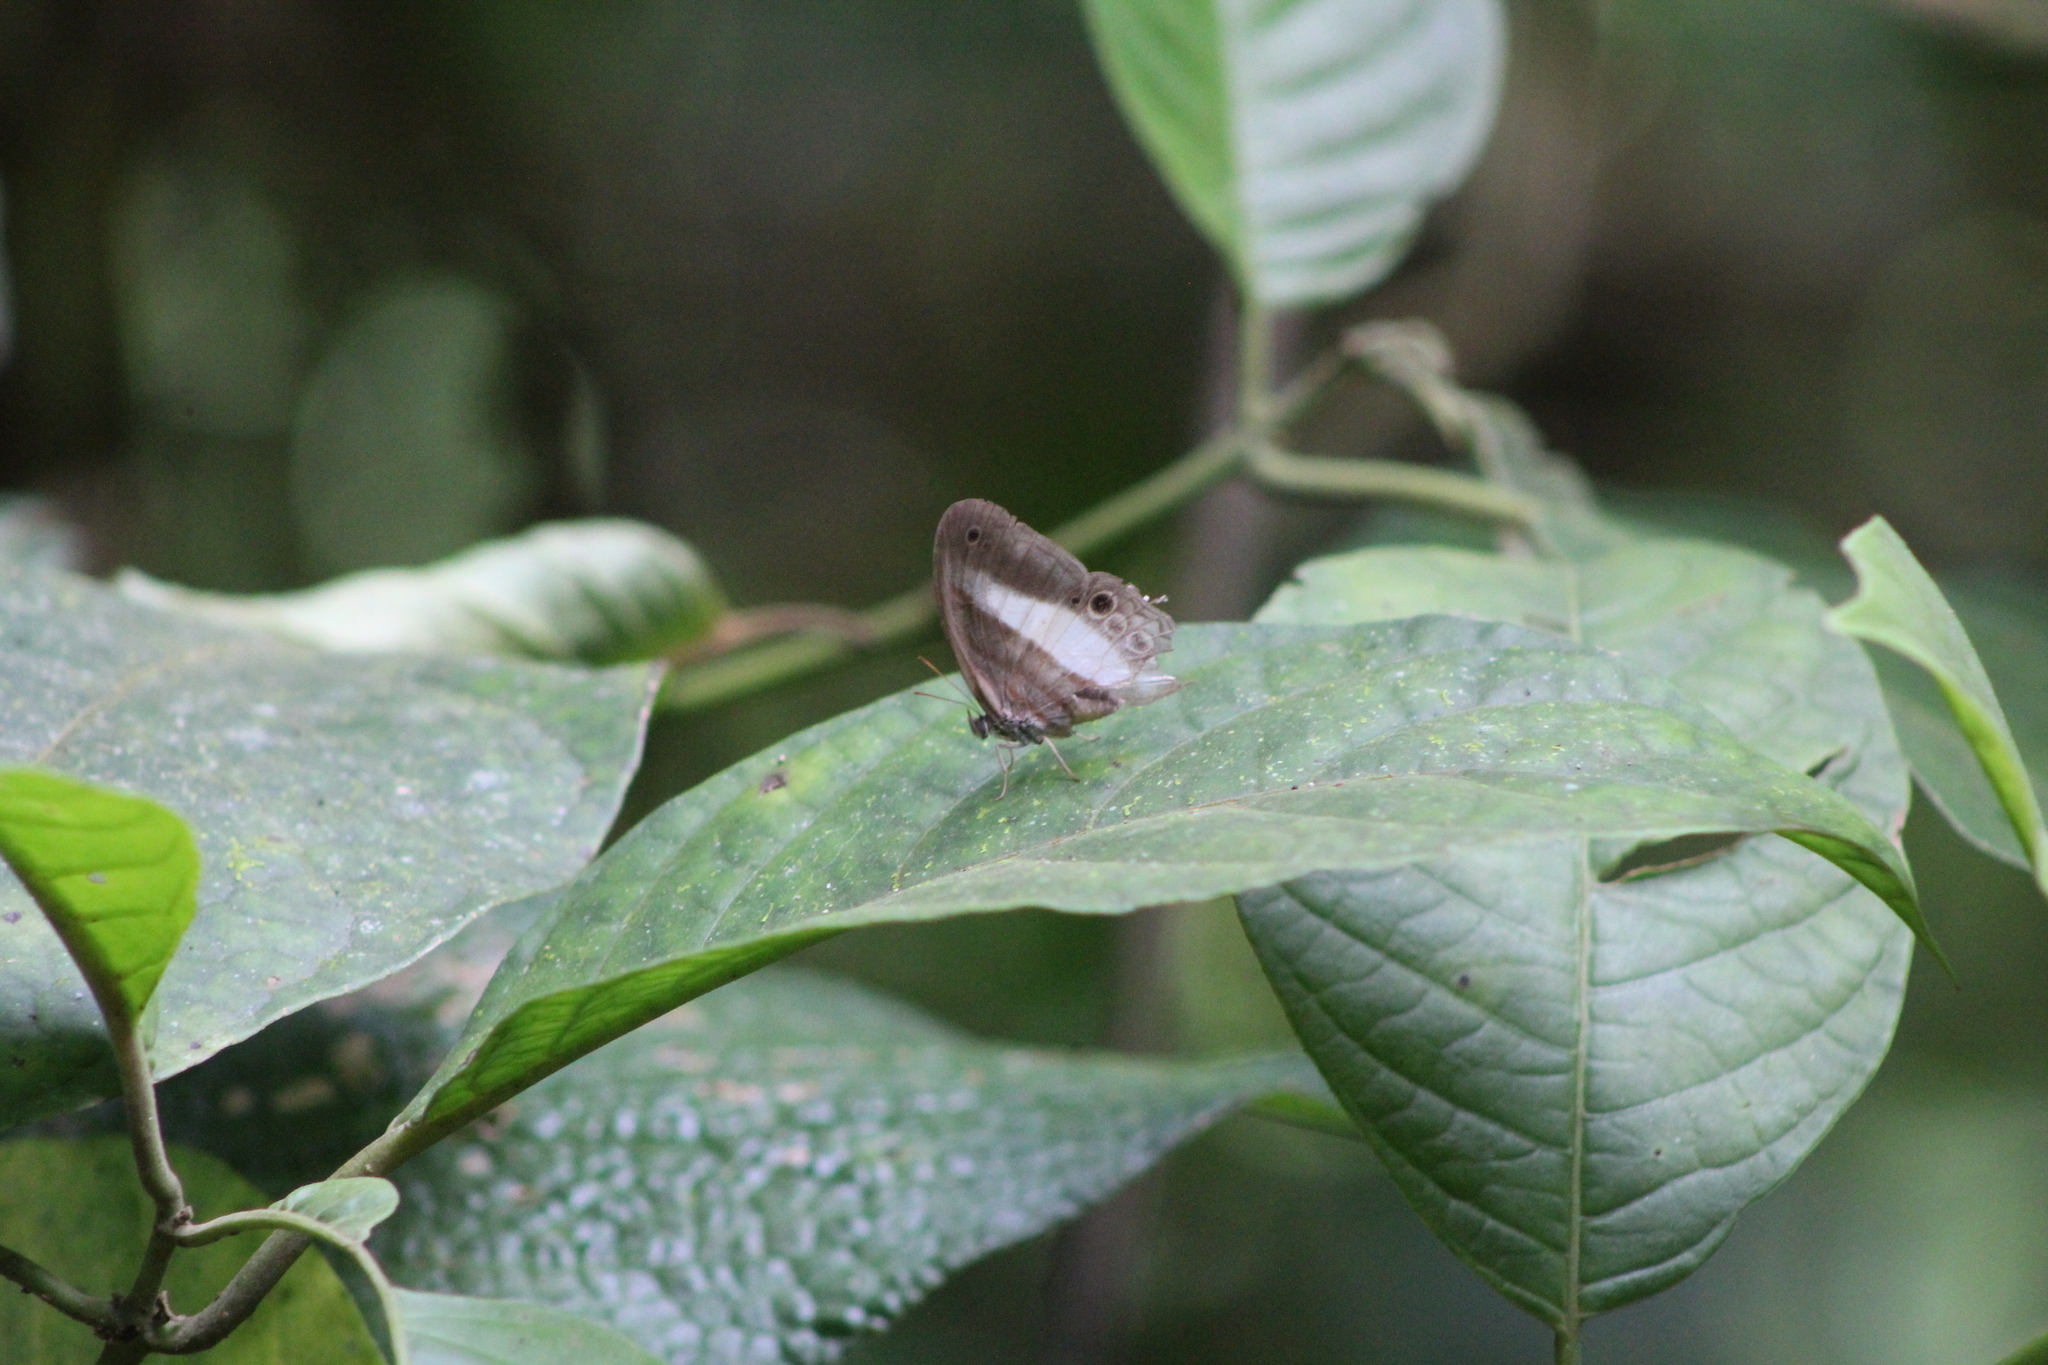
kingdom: Animalia
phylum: Arthropoda
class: Insecta
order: Lepidoptera
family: Nymphalidae
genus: Pareuptychia
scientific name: Pareuptychia metaleuca
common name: White-banded satyr
